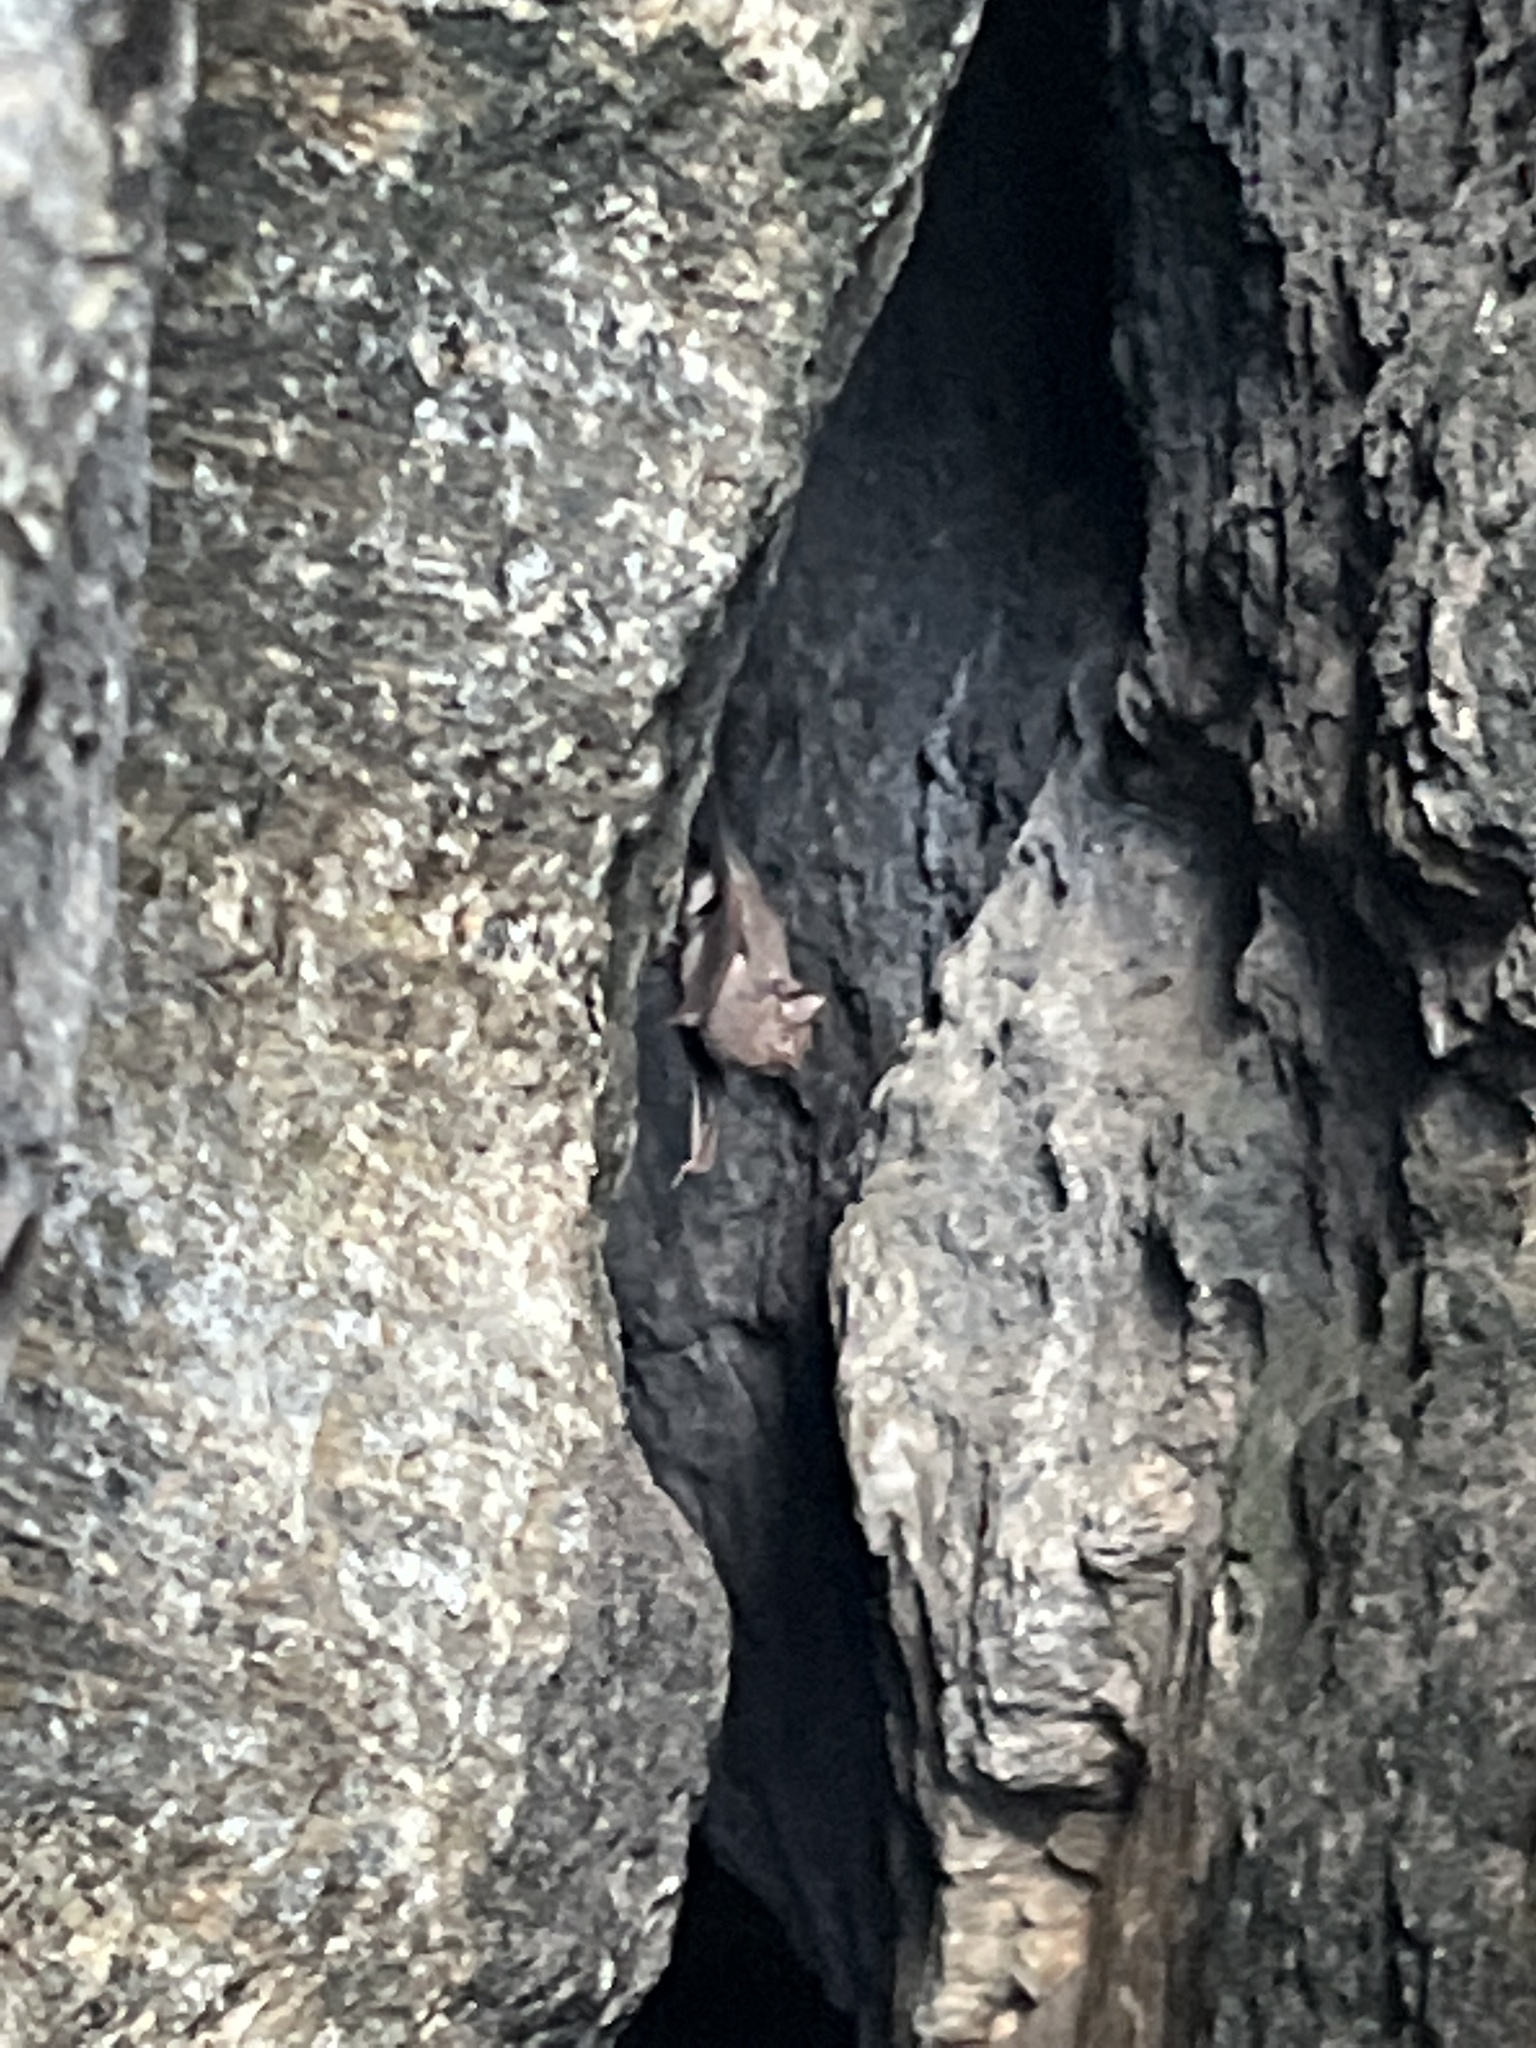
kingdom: Animalia
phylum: Chordata
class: Mammalia
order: Chiroptera
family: Emballonuridae
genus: Balantiopteryx
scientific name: Balantiopteryx plicata
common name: Gray sac-winged bat
